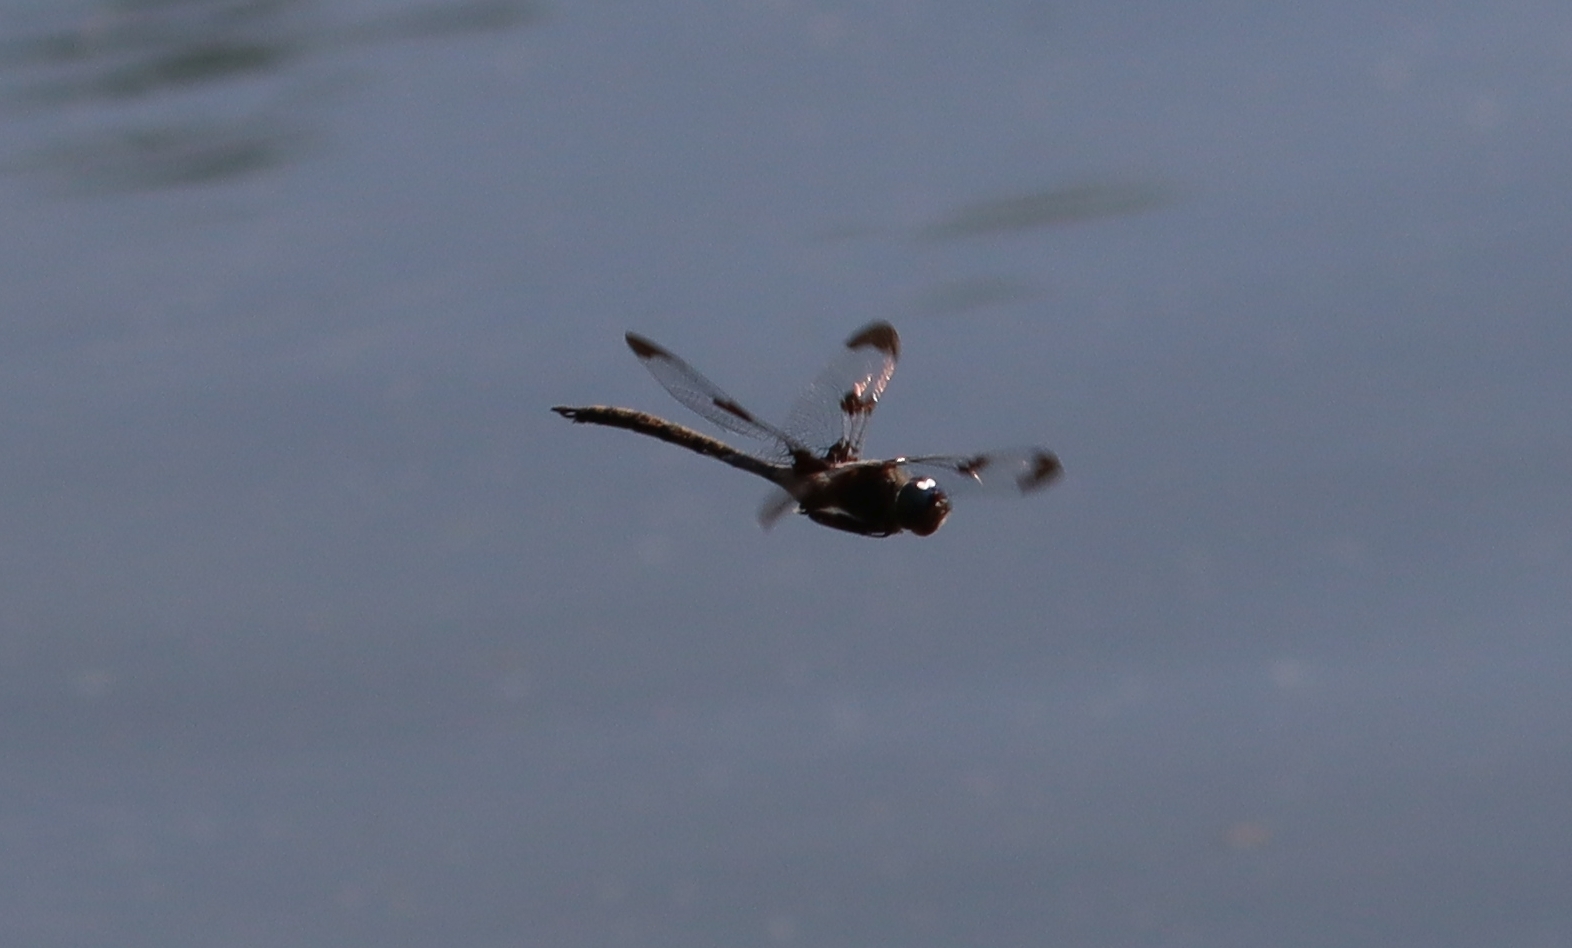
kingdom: Animalia
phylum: Arthropoda
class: Insecta
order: Odonata
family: Corduliidae
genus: Epitheca
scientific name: Epitheca princeps
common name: Prince baskettail
